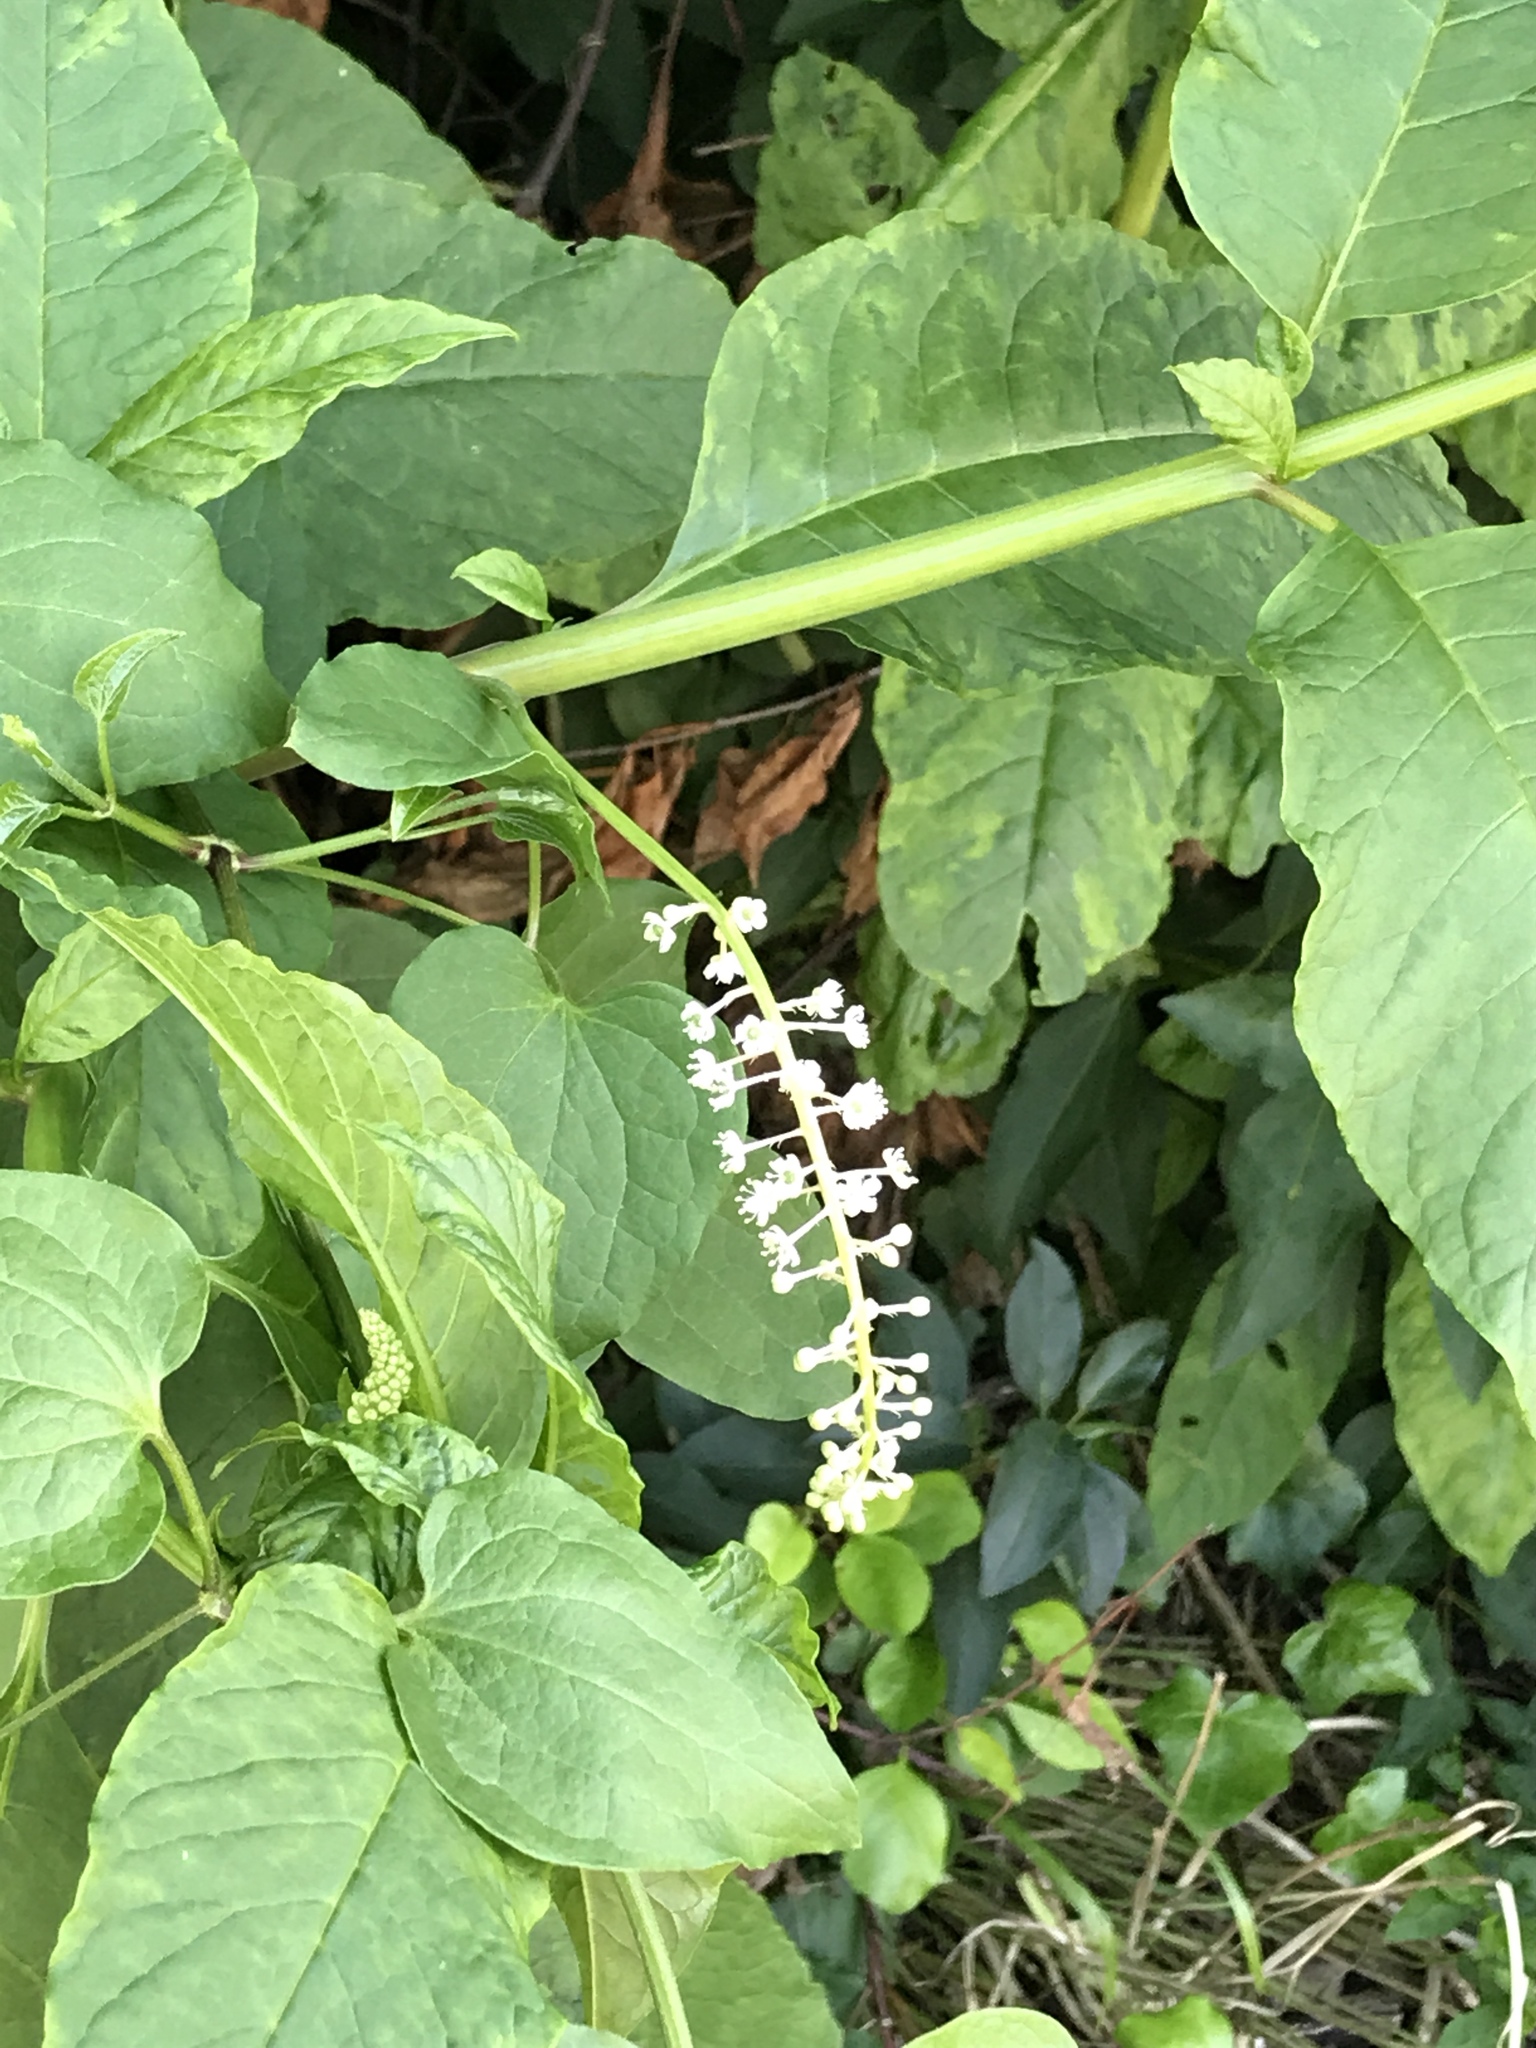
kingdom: Plantae
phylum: Tracheophyta
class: Magnoliopsida
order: Caryophyllales
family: Phytolaccaceae
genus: Phytolacca
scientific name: Phytolacca americana
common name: American pokeweed
